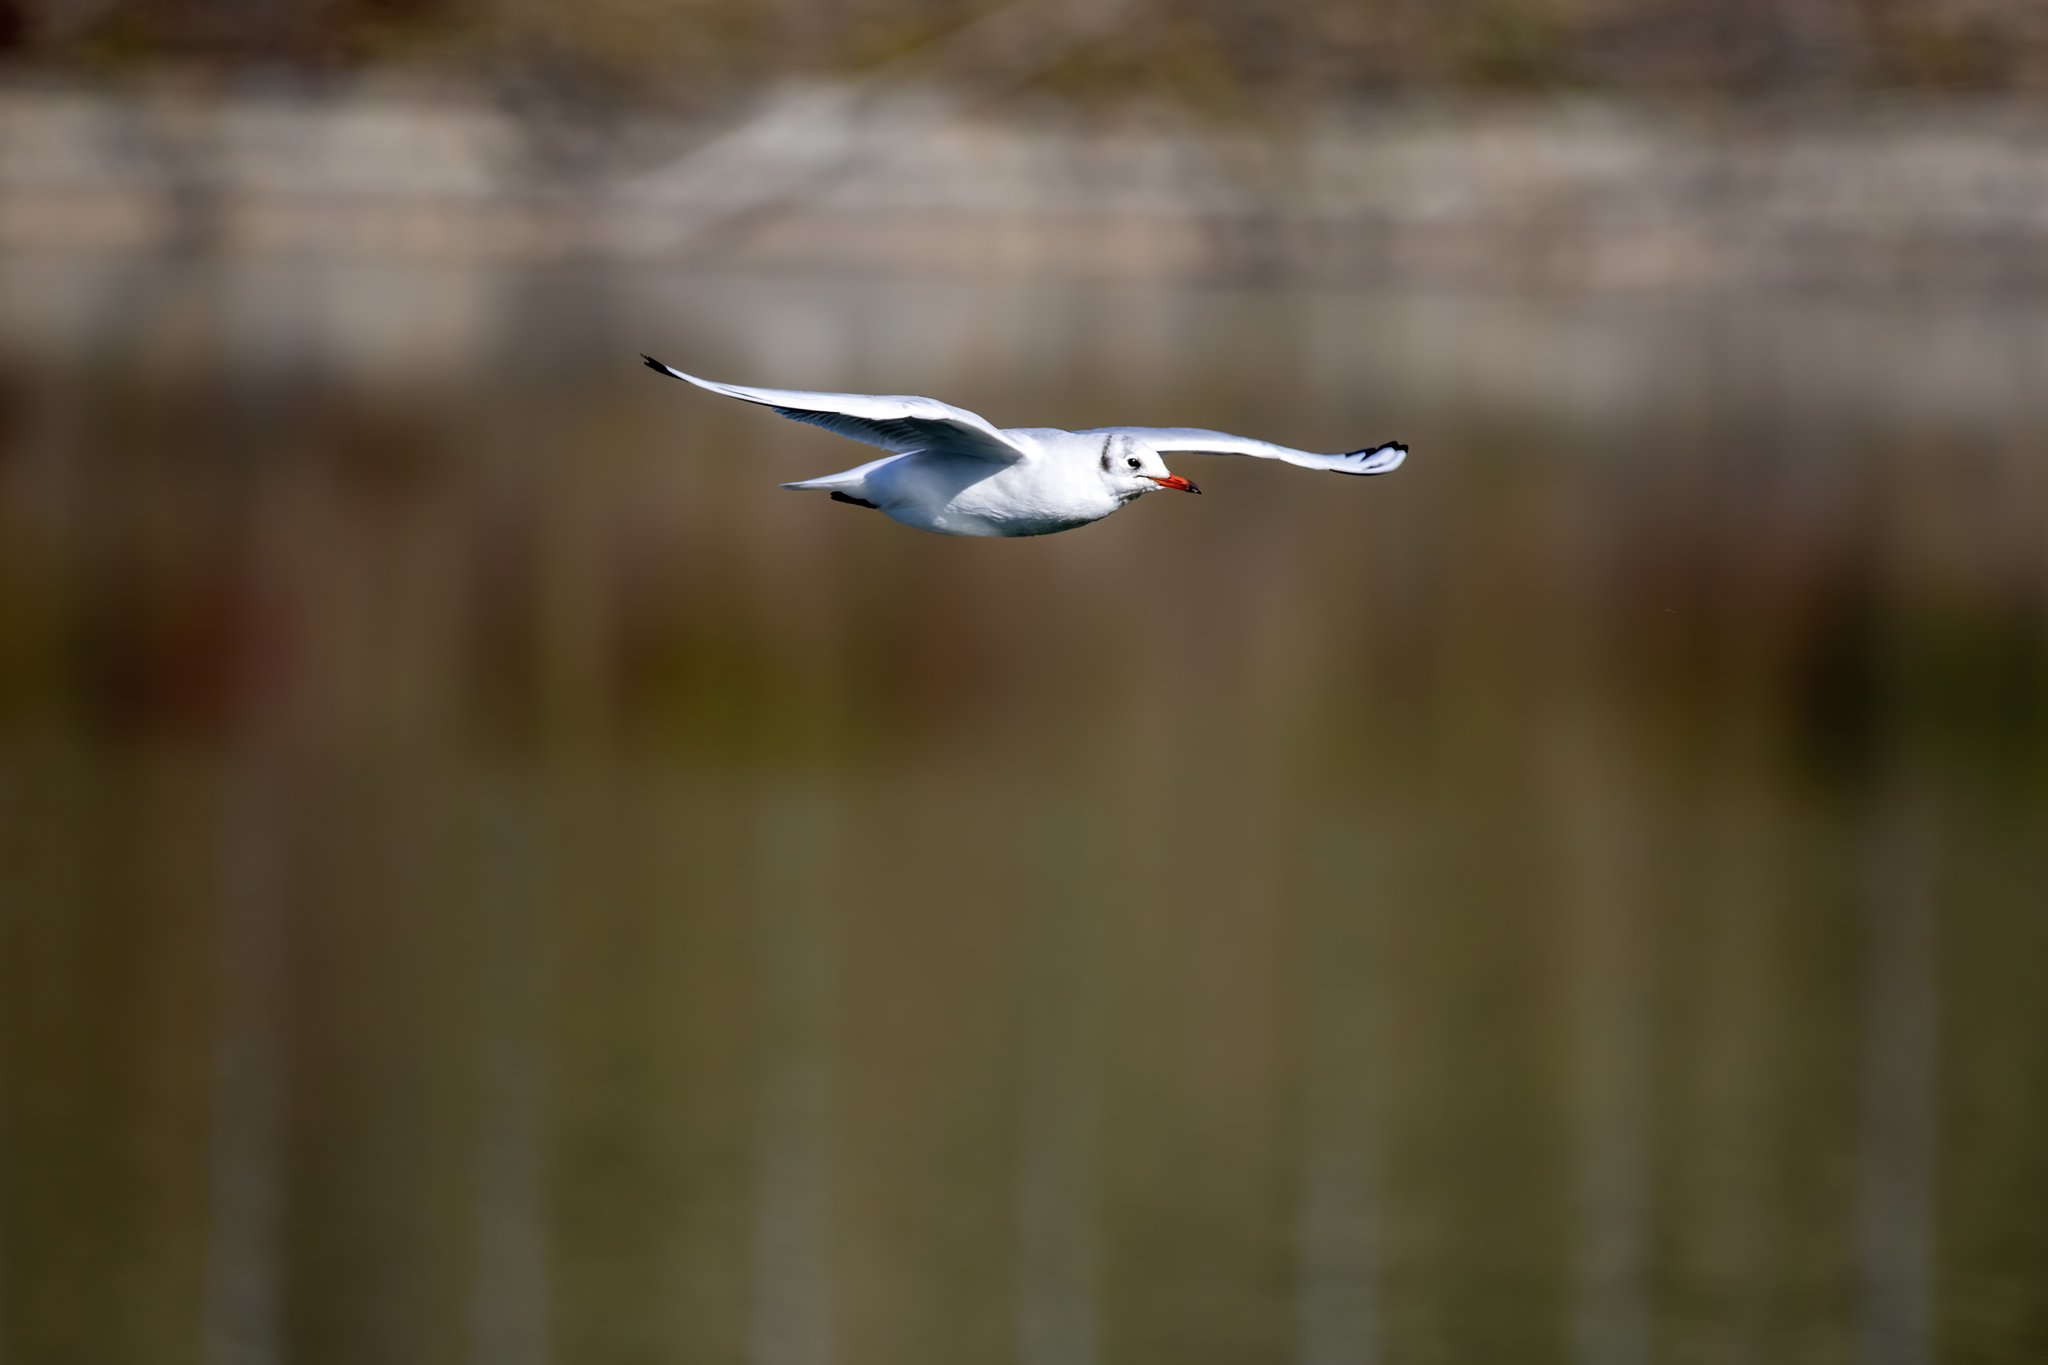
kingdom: Animalia
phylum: Chordata
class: Aves
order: Charadriiformes
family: Laridae
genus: Chroicocephalus
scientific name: Chroicocephalus ridibundus
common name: Black-headed gull
